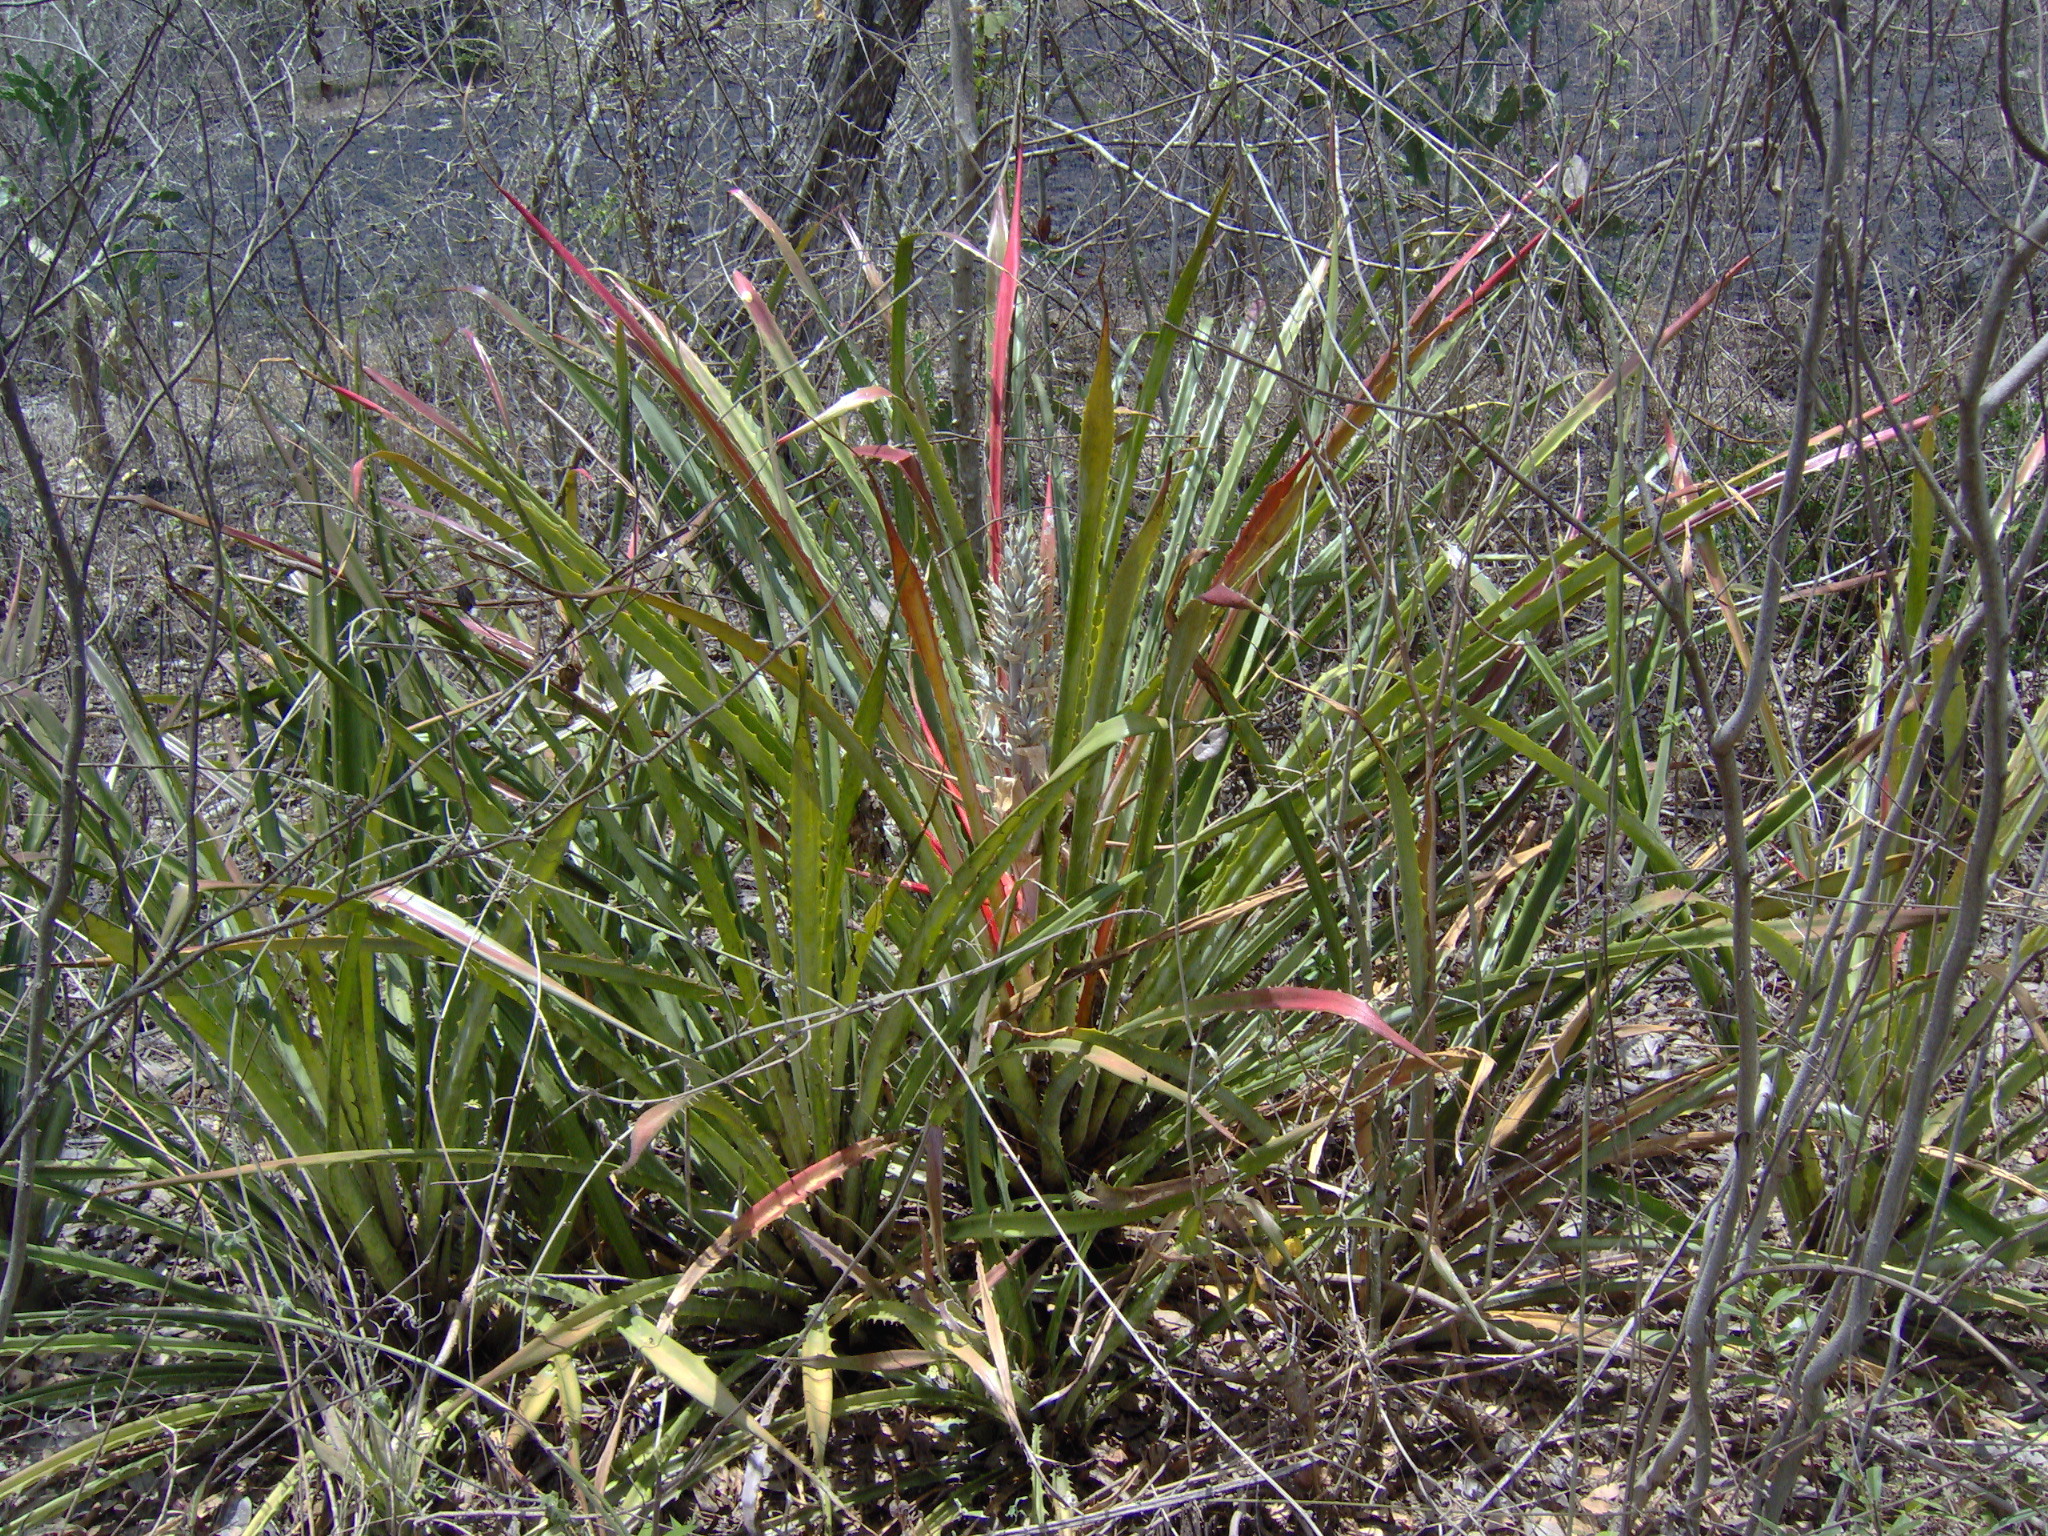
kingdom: Plantae
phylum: Tracheophyta
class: Liliopsida
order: Poales
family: Bromeliaceae
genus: Bromelia
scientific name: Bromelia pinguin
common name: Pinguin
